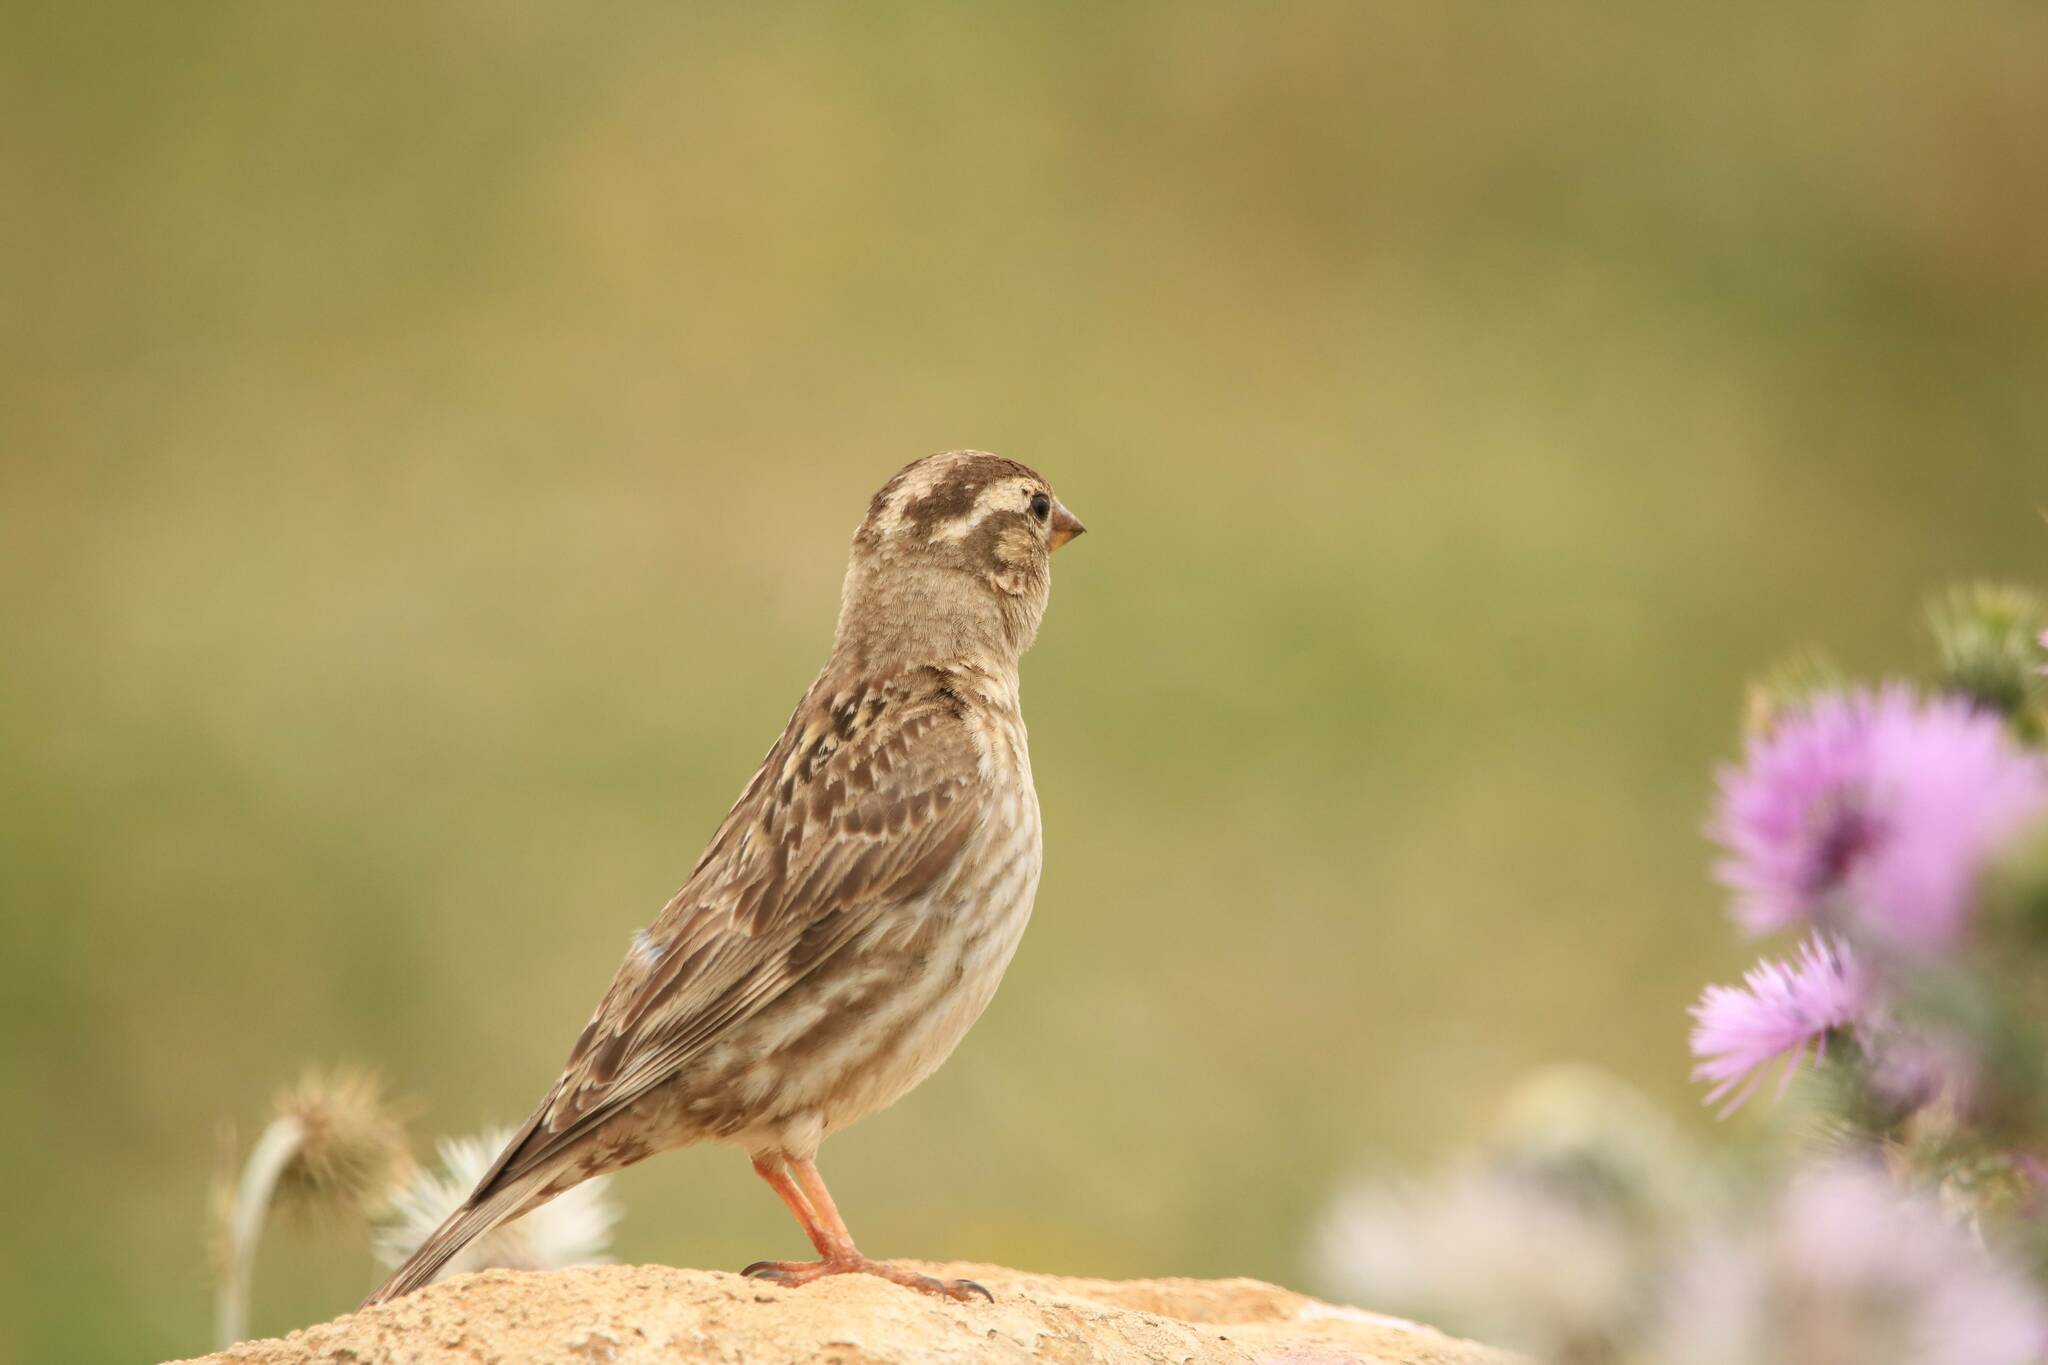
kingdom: Animalia
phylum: Chordata
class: Aves
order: Passeriformes
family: Passeridae
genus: Petronia
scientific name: Petronia petronia
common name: Rock sparrow
